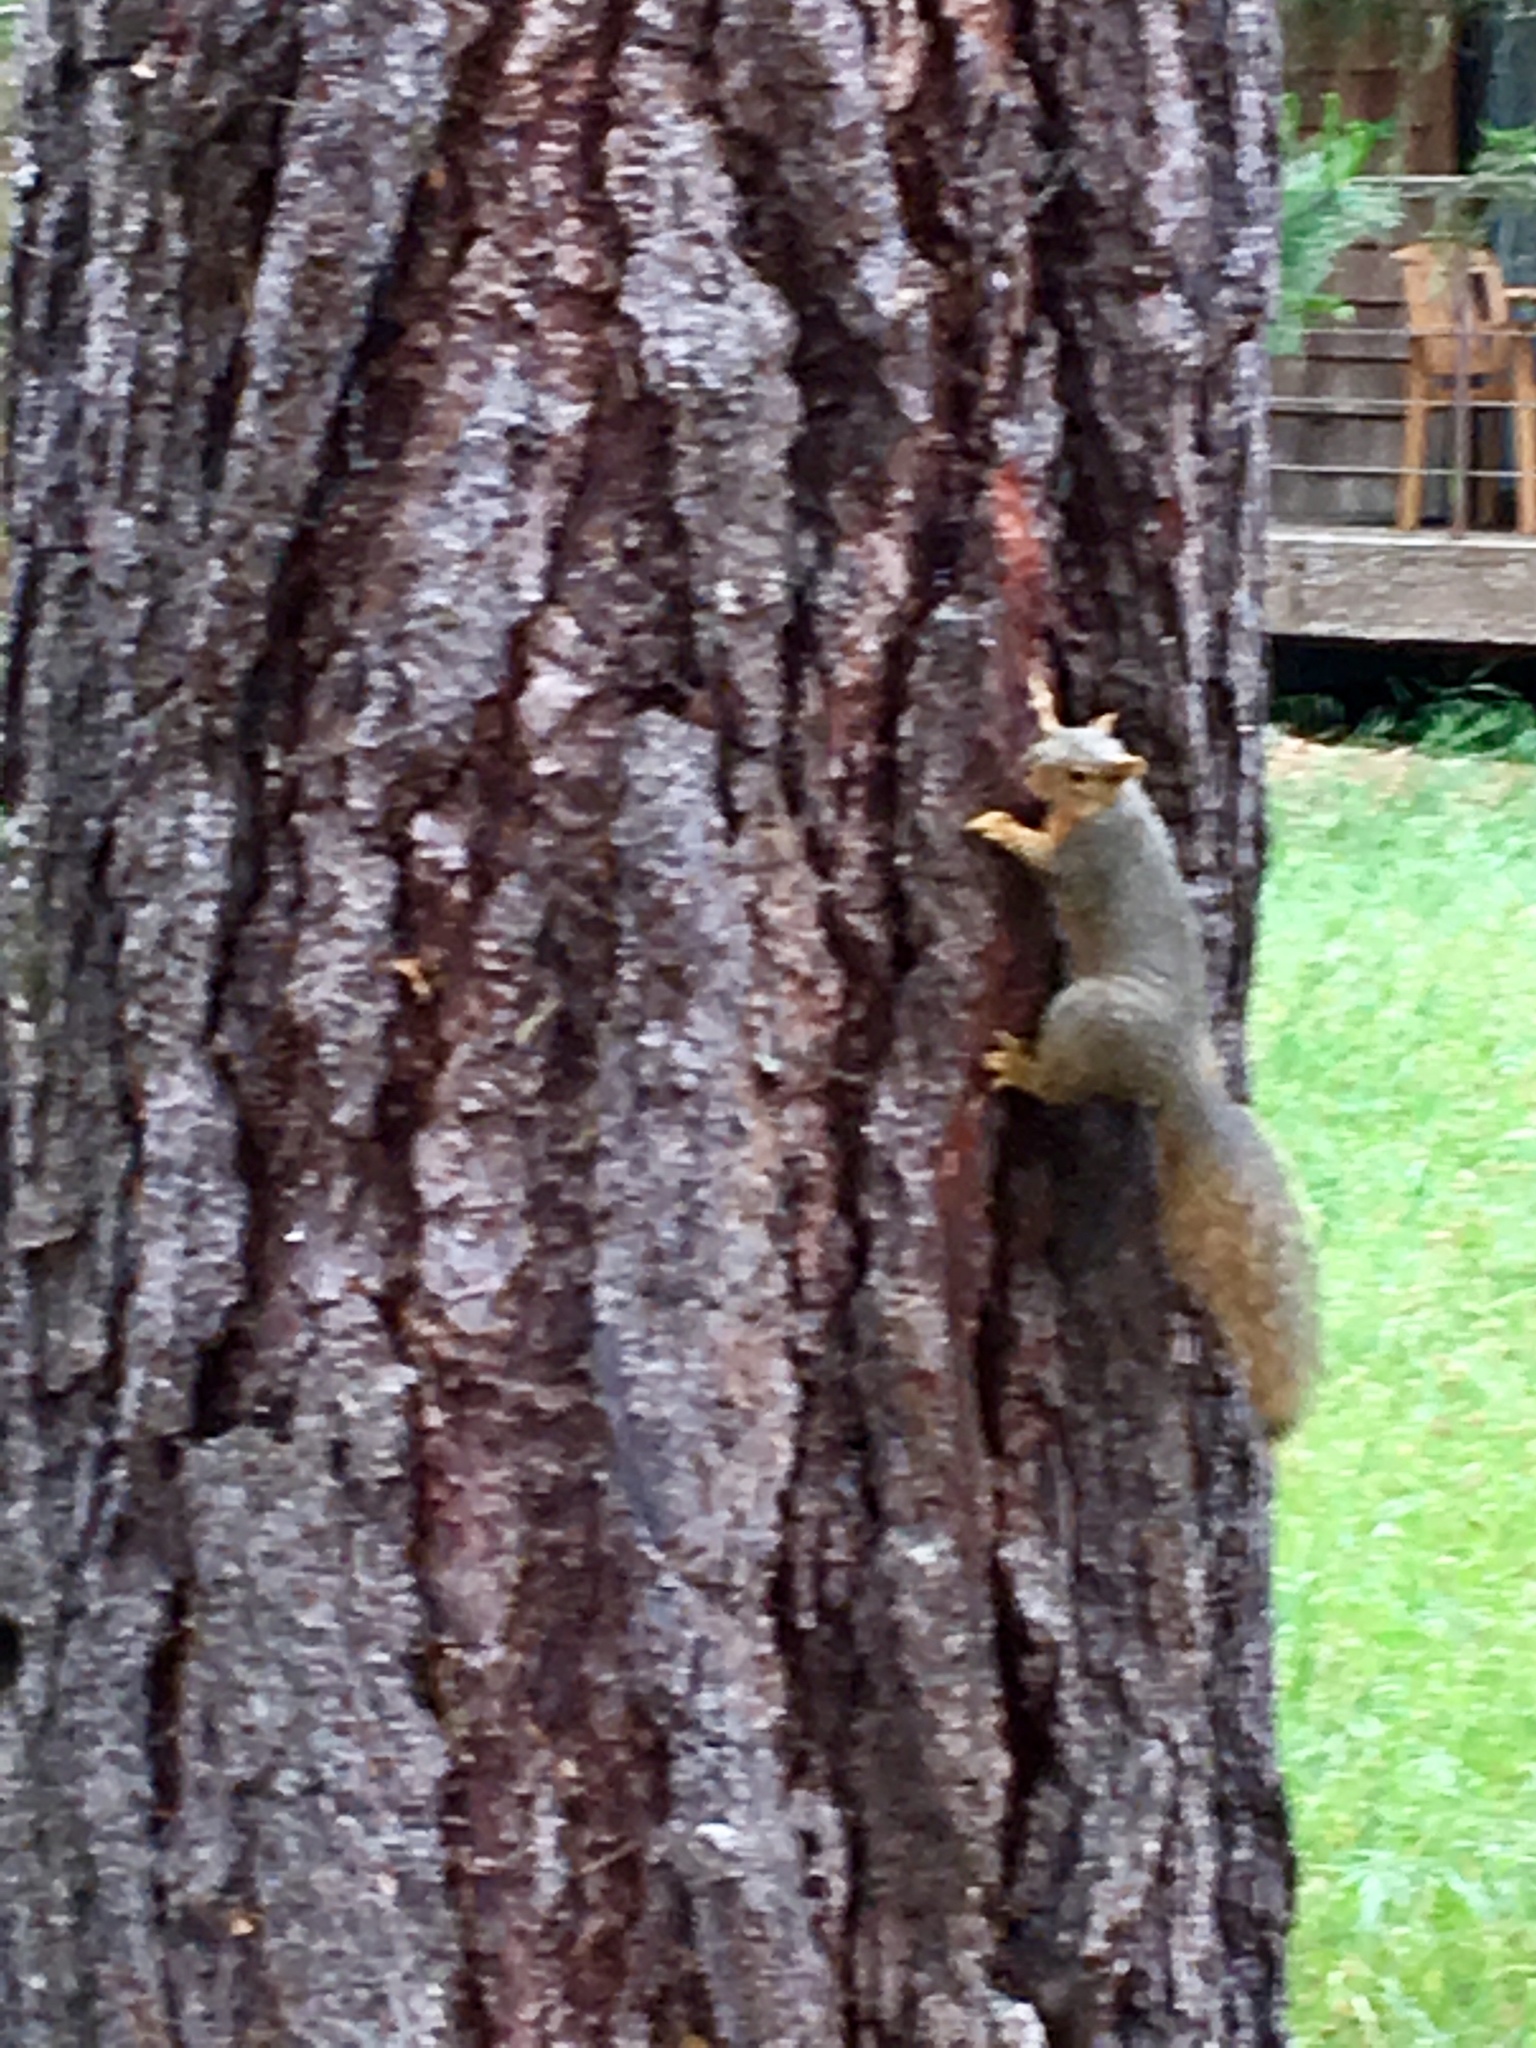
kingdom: Animalia
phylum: Chordata
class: Mammalia
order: Rodentia
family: Sciuridae
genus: Sciurus
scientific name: Sciurus niger
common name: Fox squirrel
